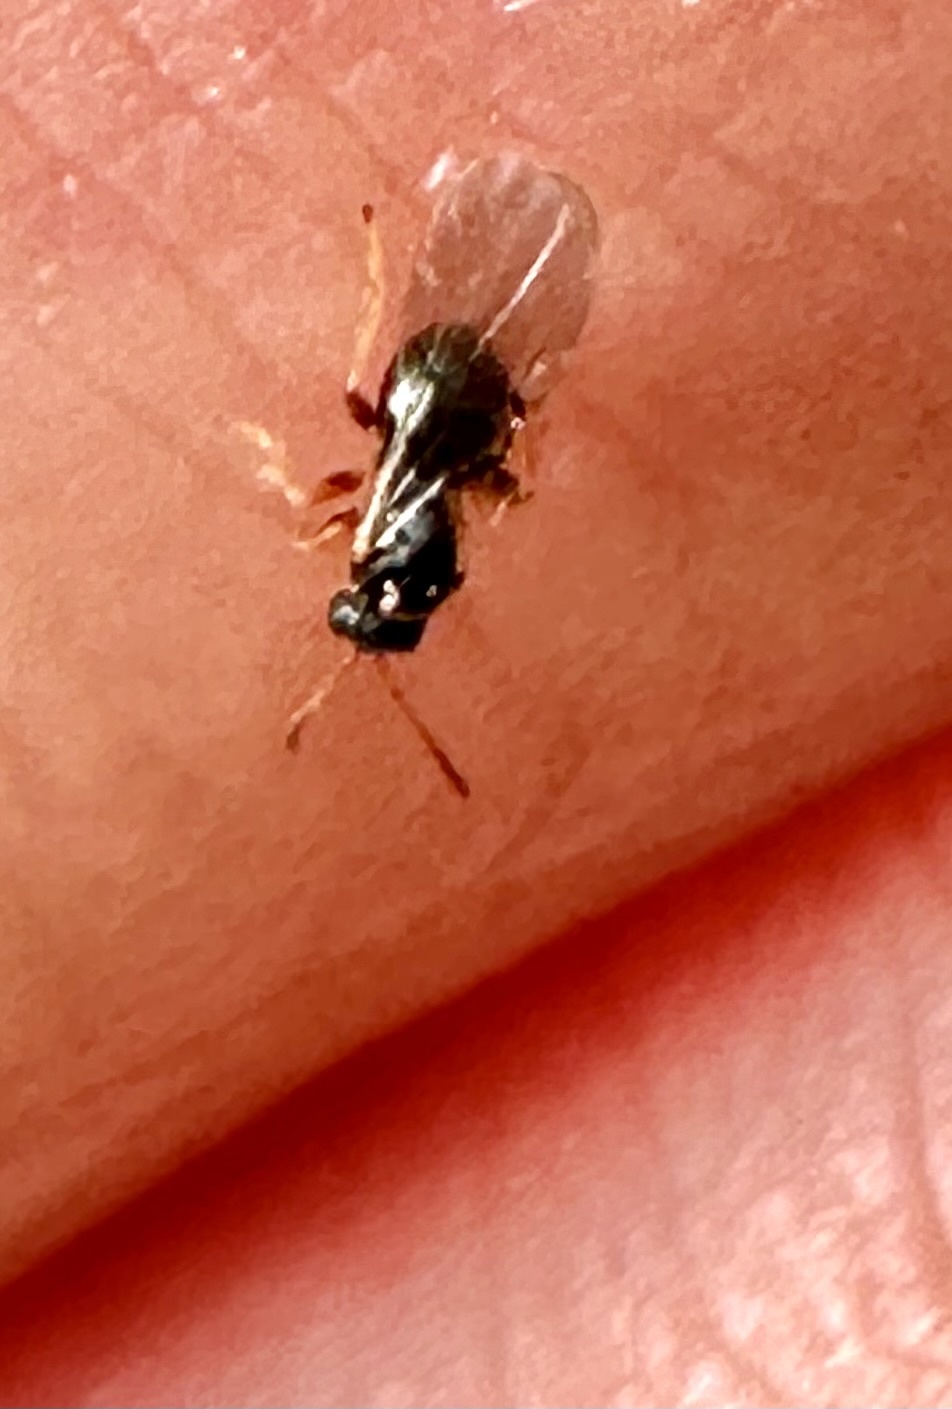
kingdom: Animalia
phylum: Arthropoda
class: Insecta
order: Hymenoptera
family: Cynipidae
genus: Dryocosmus
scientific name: Dryocosmus
